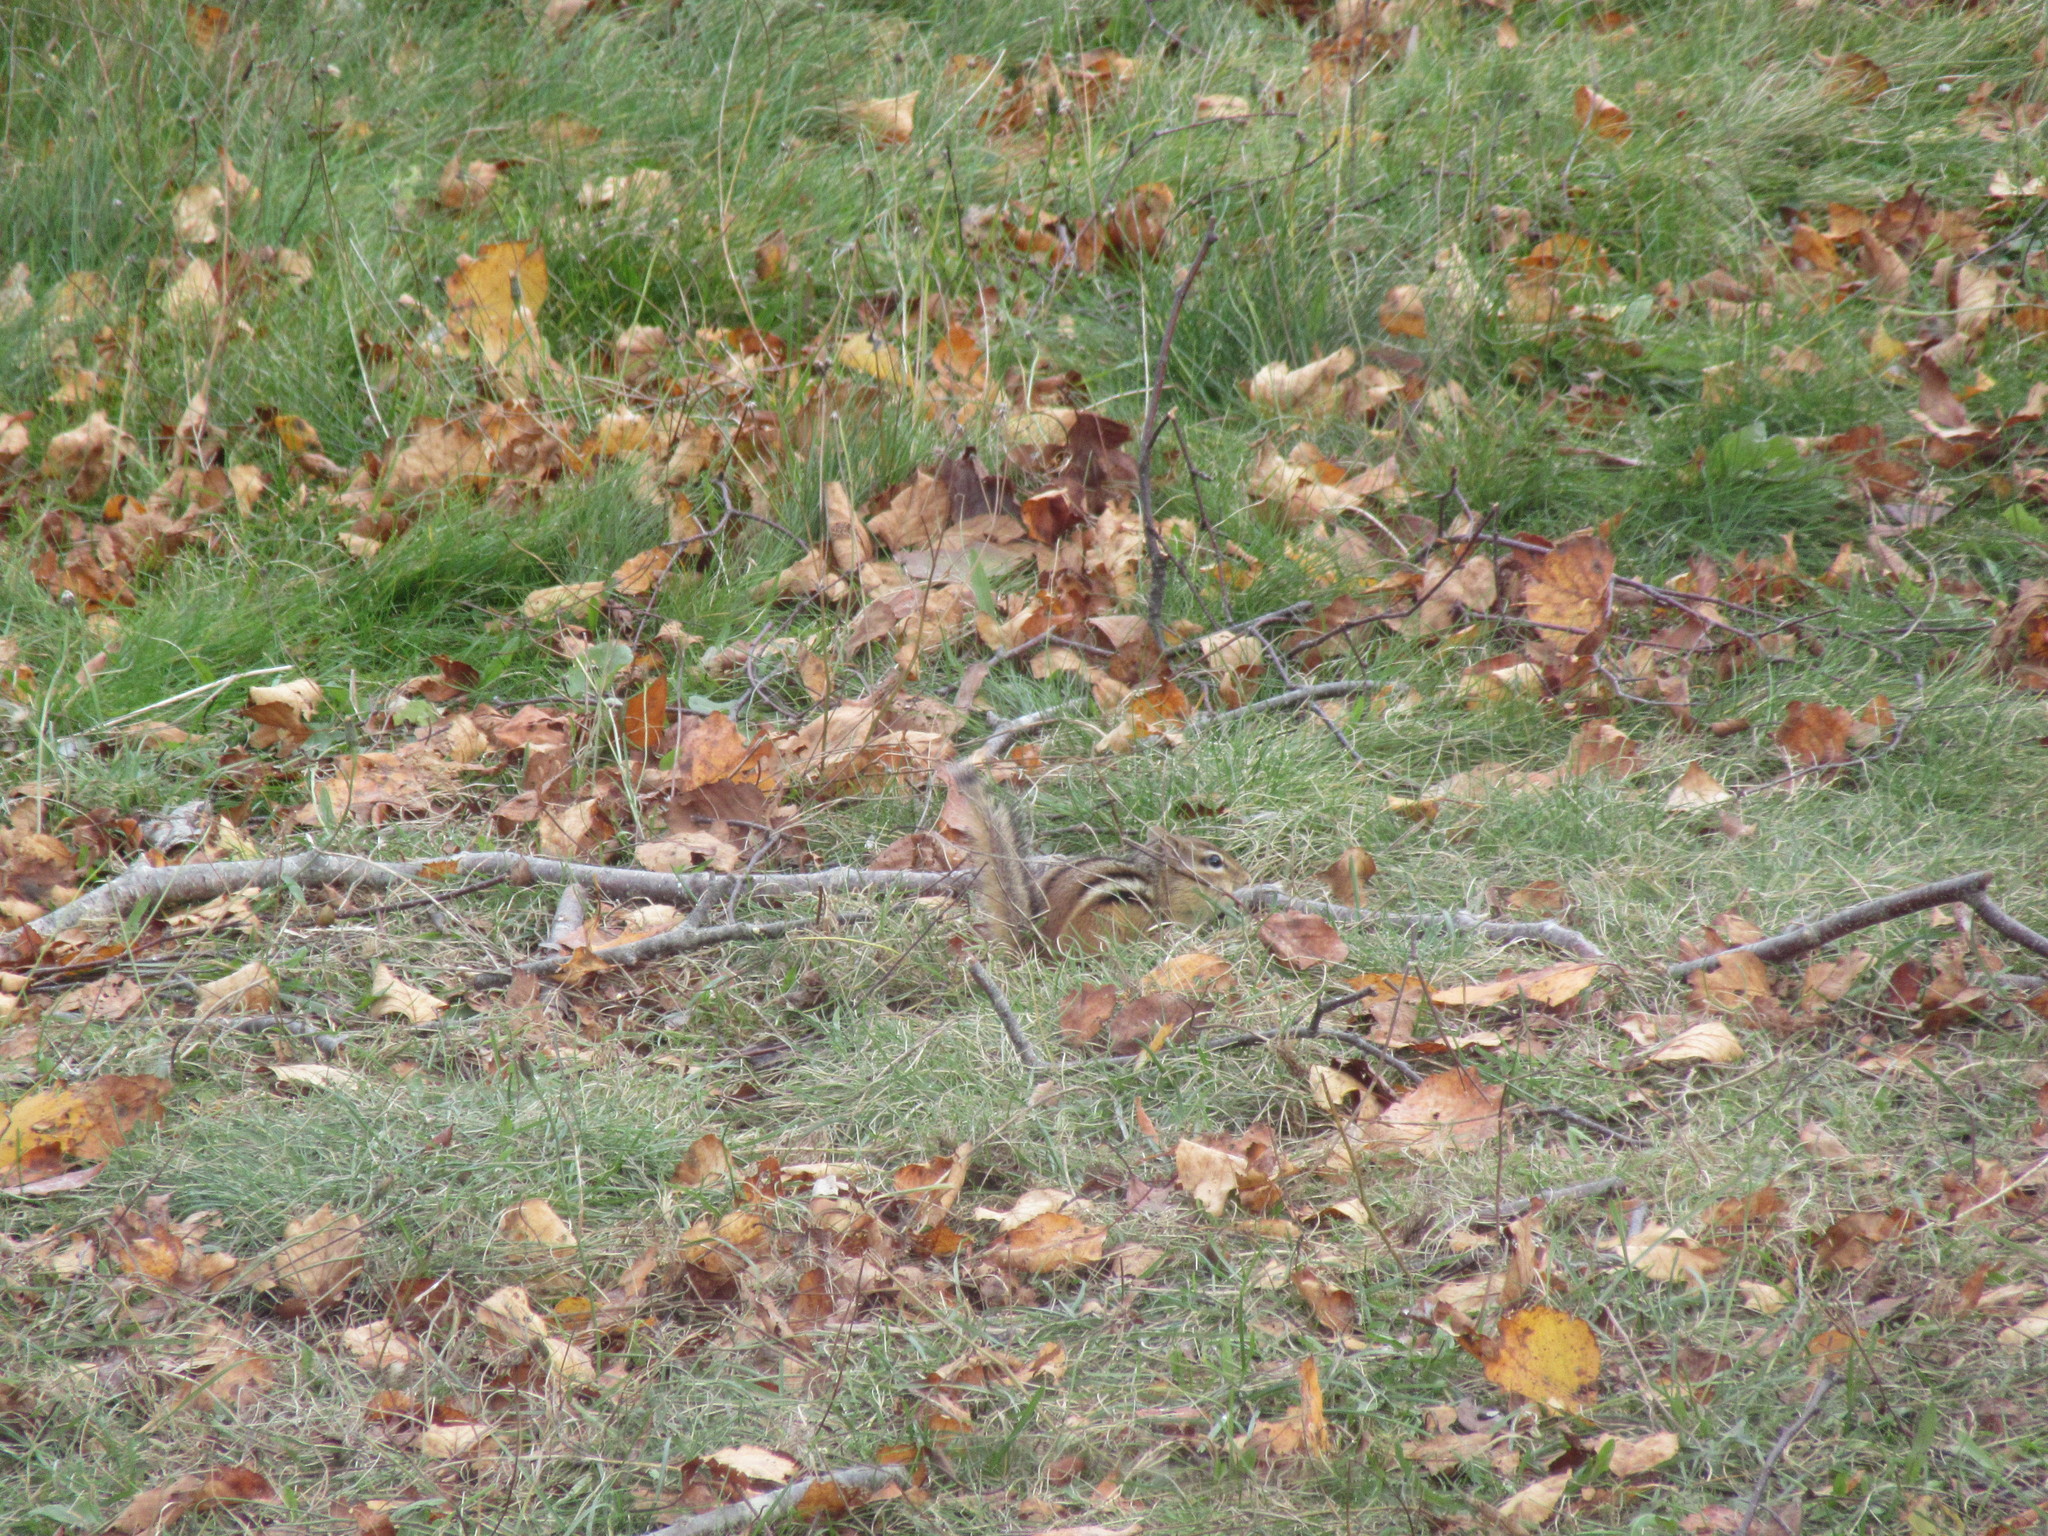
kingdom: Animalia
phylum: Chordata
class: Mammalia
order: Rodentia
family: Sciuridae
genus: Tamias
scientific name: Tamias striatus
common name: Eastern chipmunk
